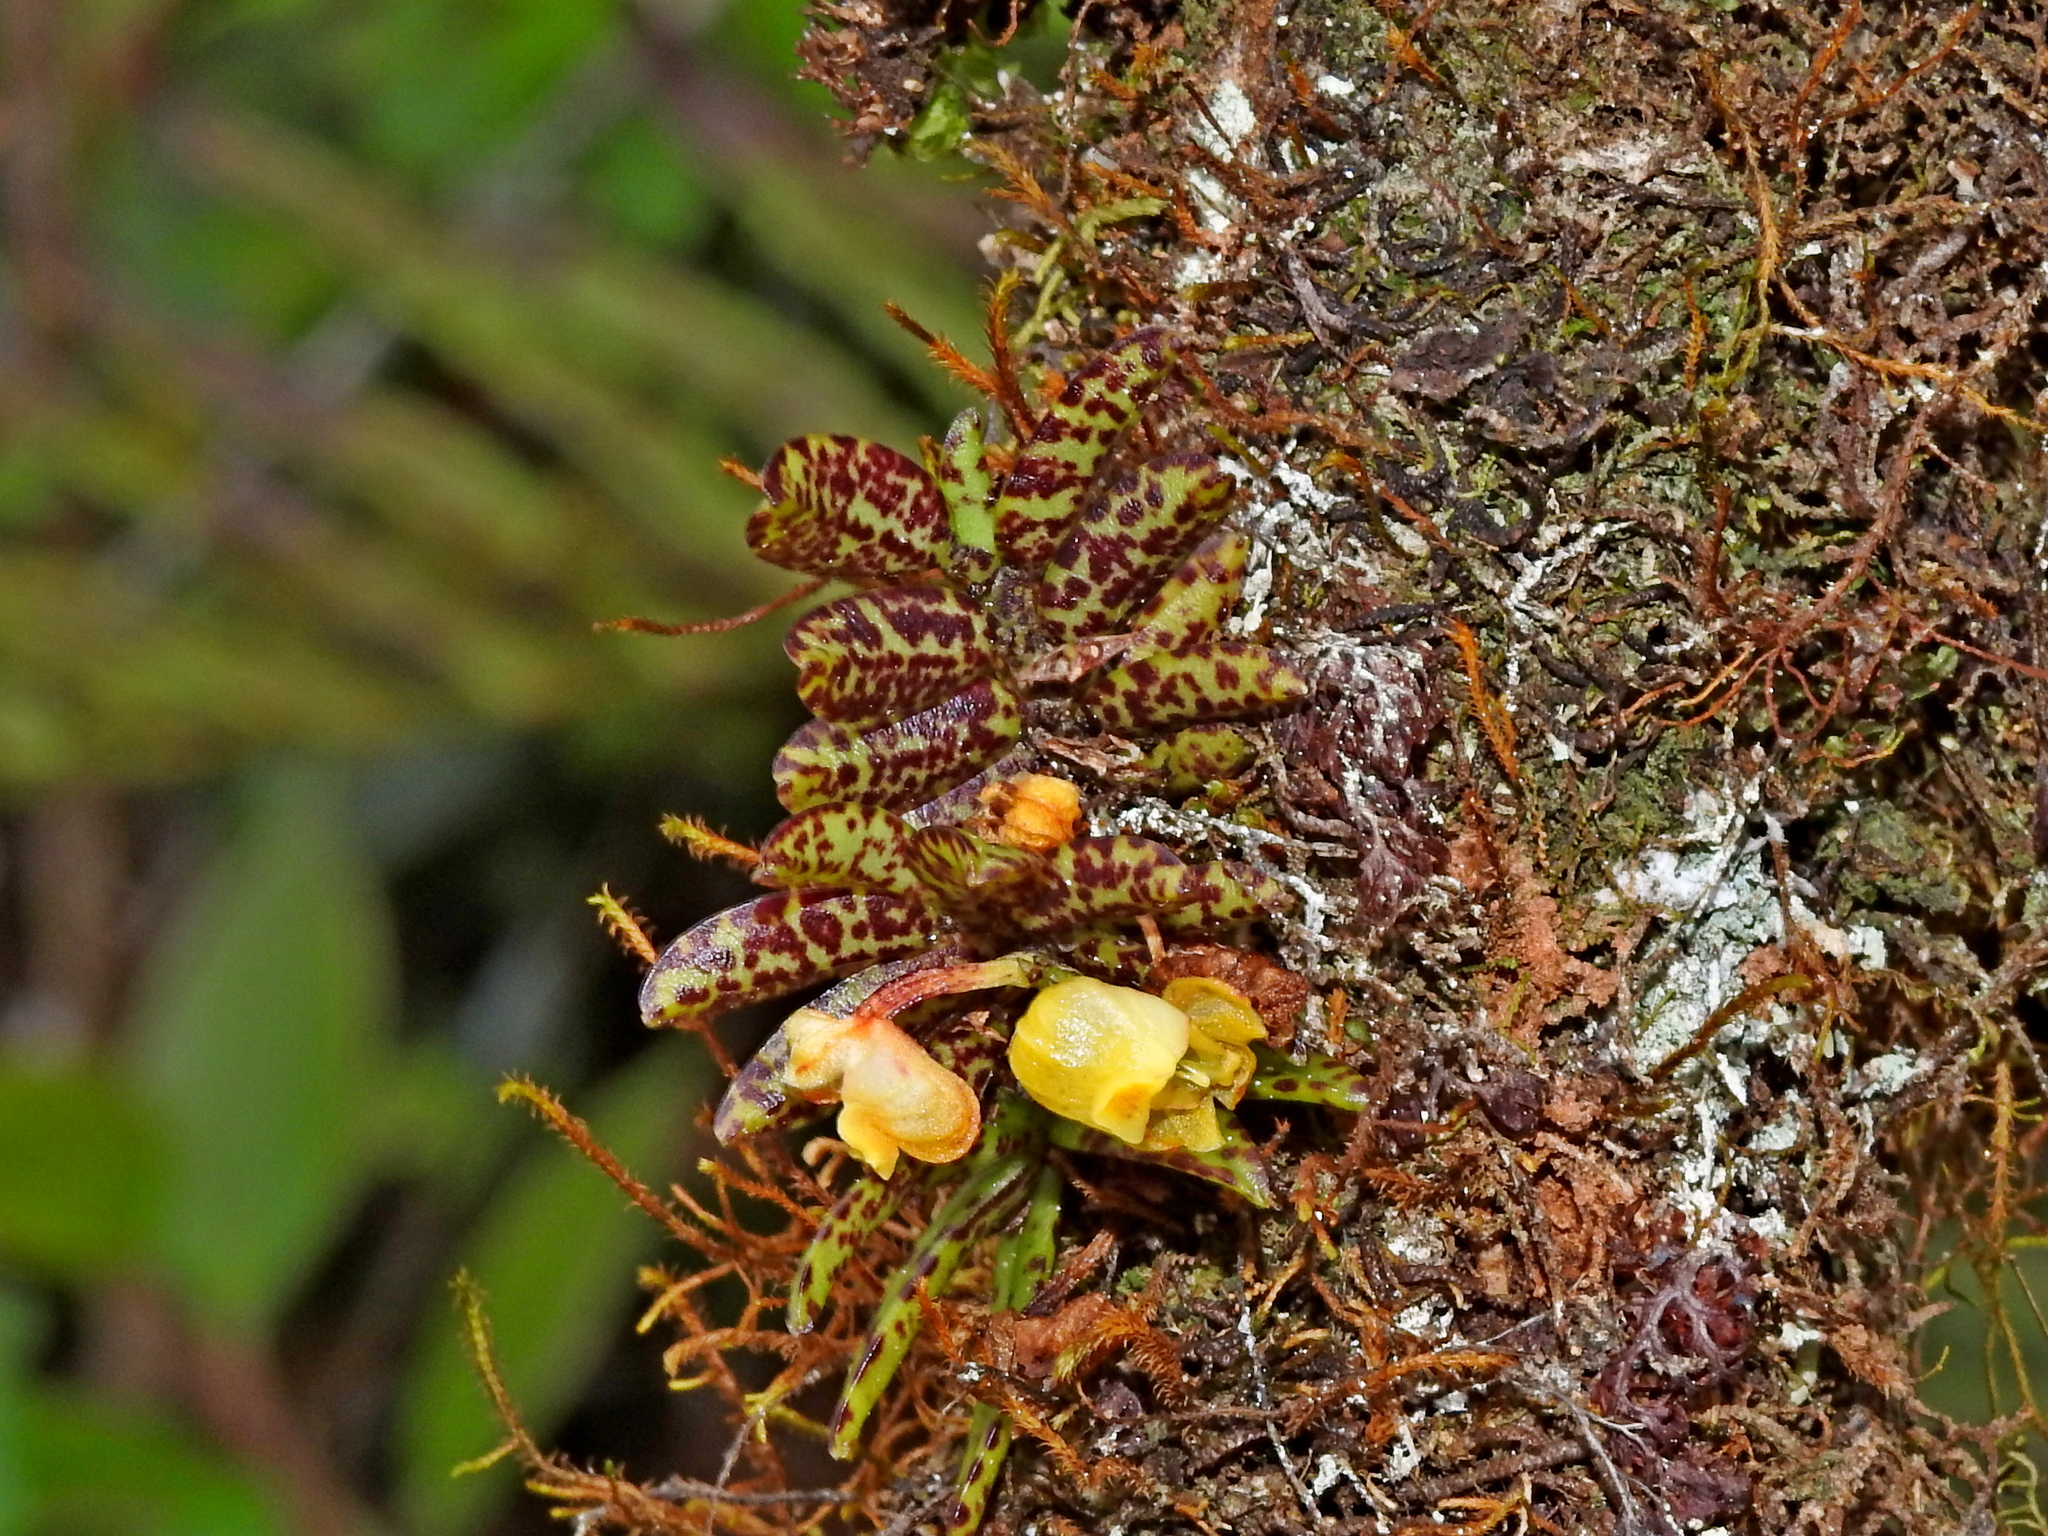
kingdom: Plantae
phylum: Tracheophyta
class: Liliopsida
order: Asparagales
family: Orchidaceae
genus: Gastrochilus
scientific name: Gastrochilus fuscopunctatus
